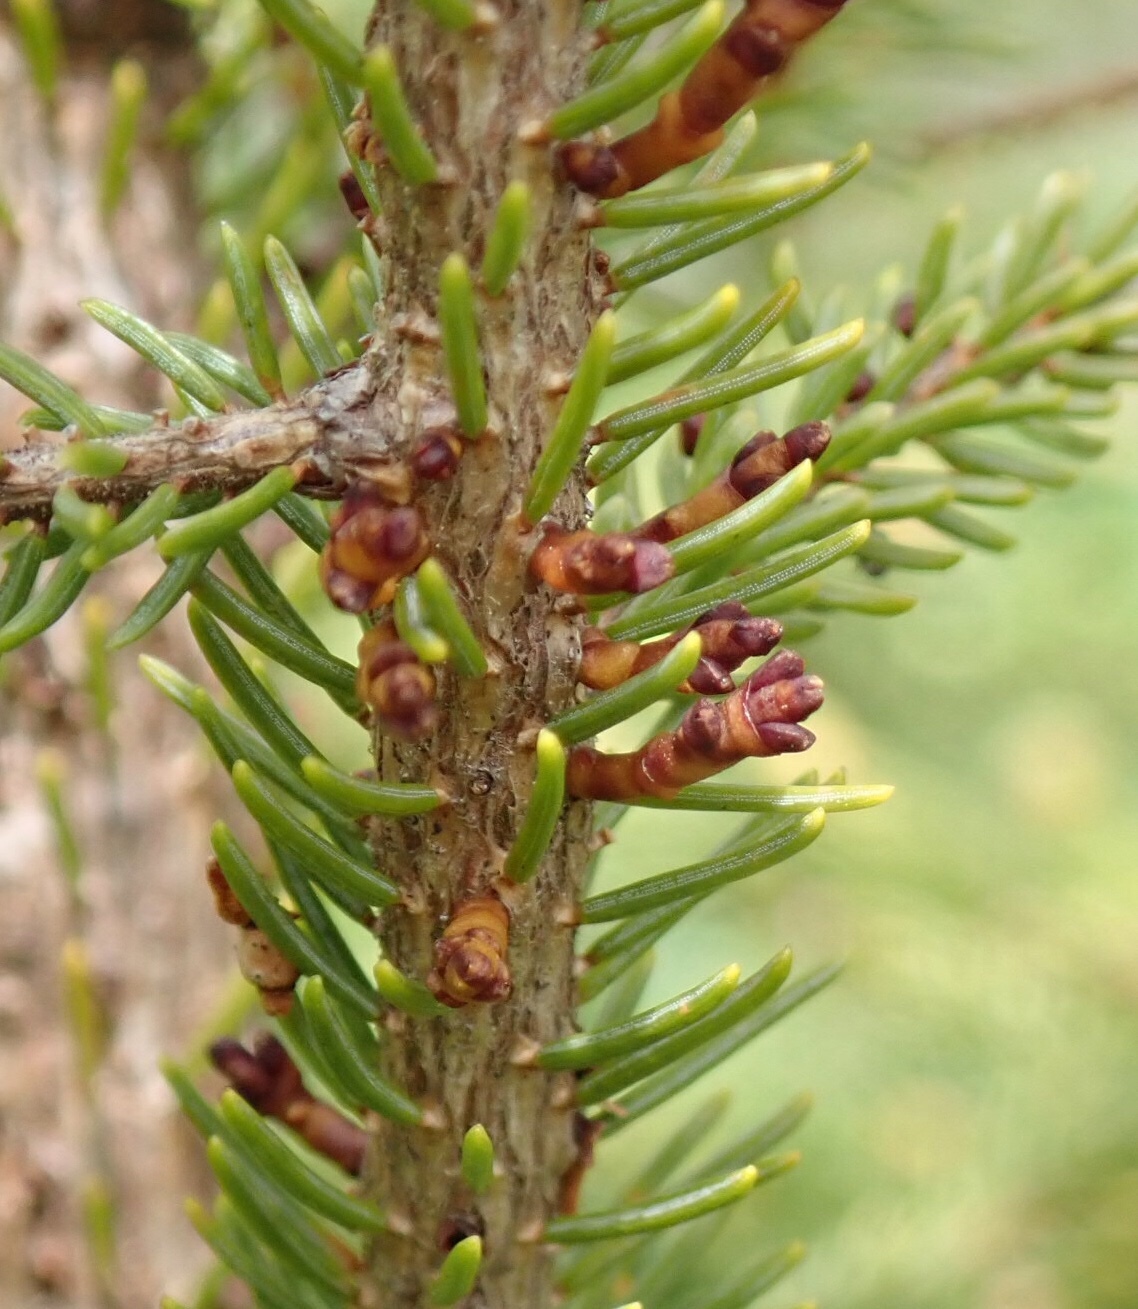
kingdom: Plantae
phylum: Tracheophyta
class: Magnoliopsida
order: Santalales
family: Viscaceae
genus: Arceuthobium
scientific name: Arceuthobium pusillum
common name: Dwarf-mistletoe
